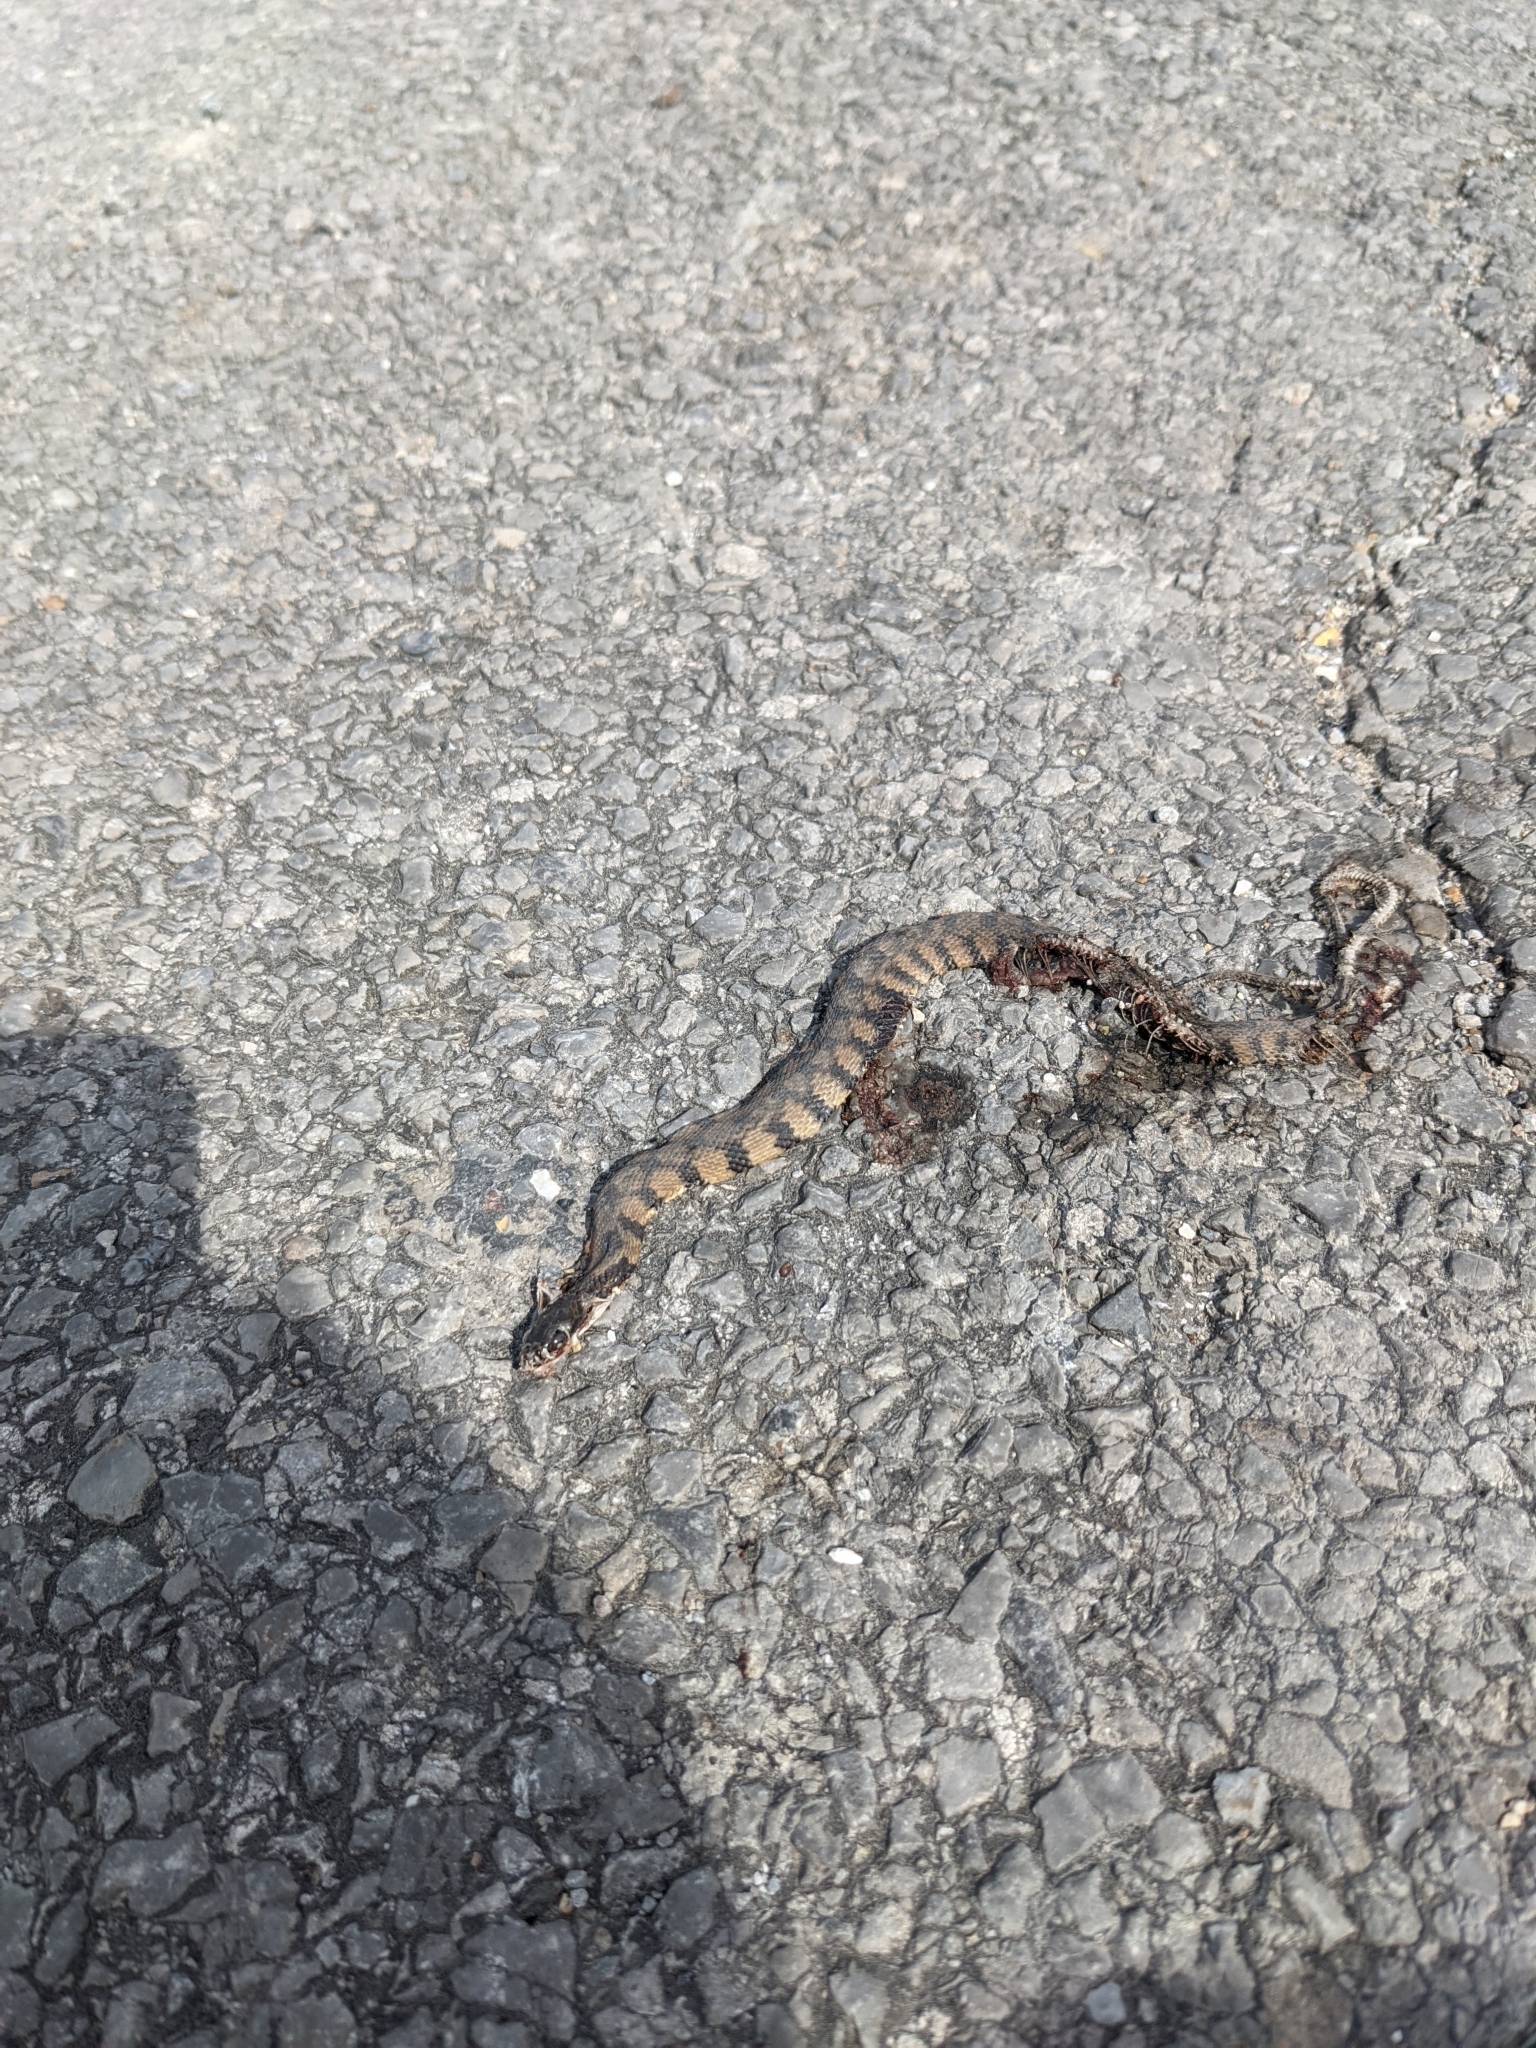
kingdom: Animalia
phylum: Chordata
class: Squamata
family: Colubridae
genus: Nerodia
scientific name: Nerodia rhombifer
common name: Diamondback water snake
